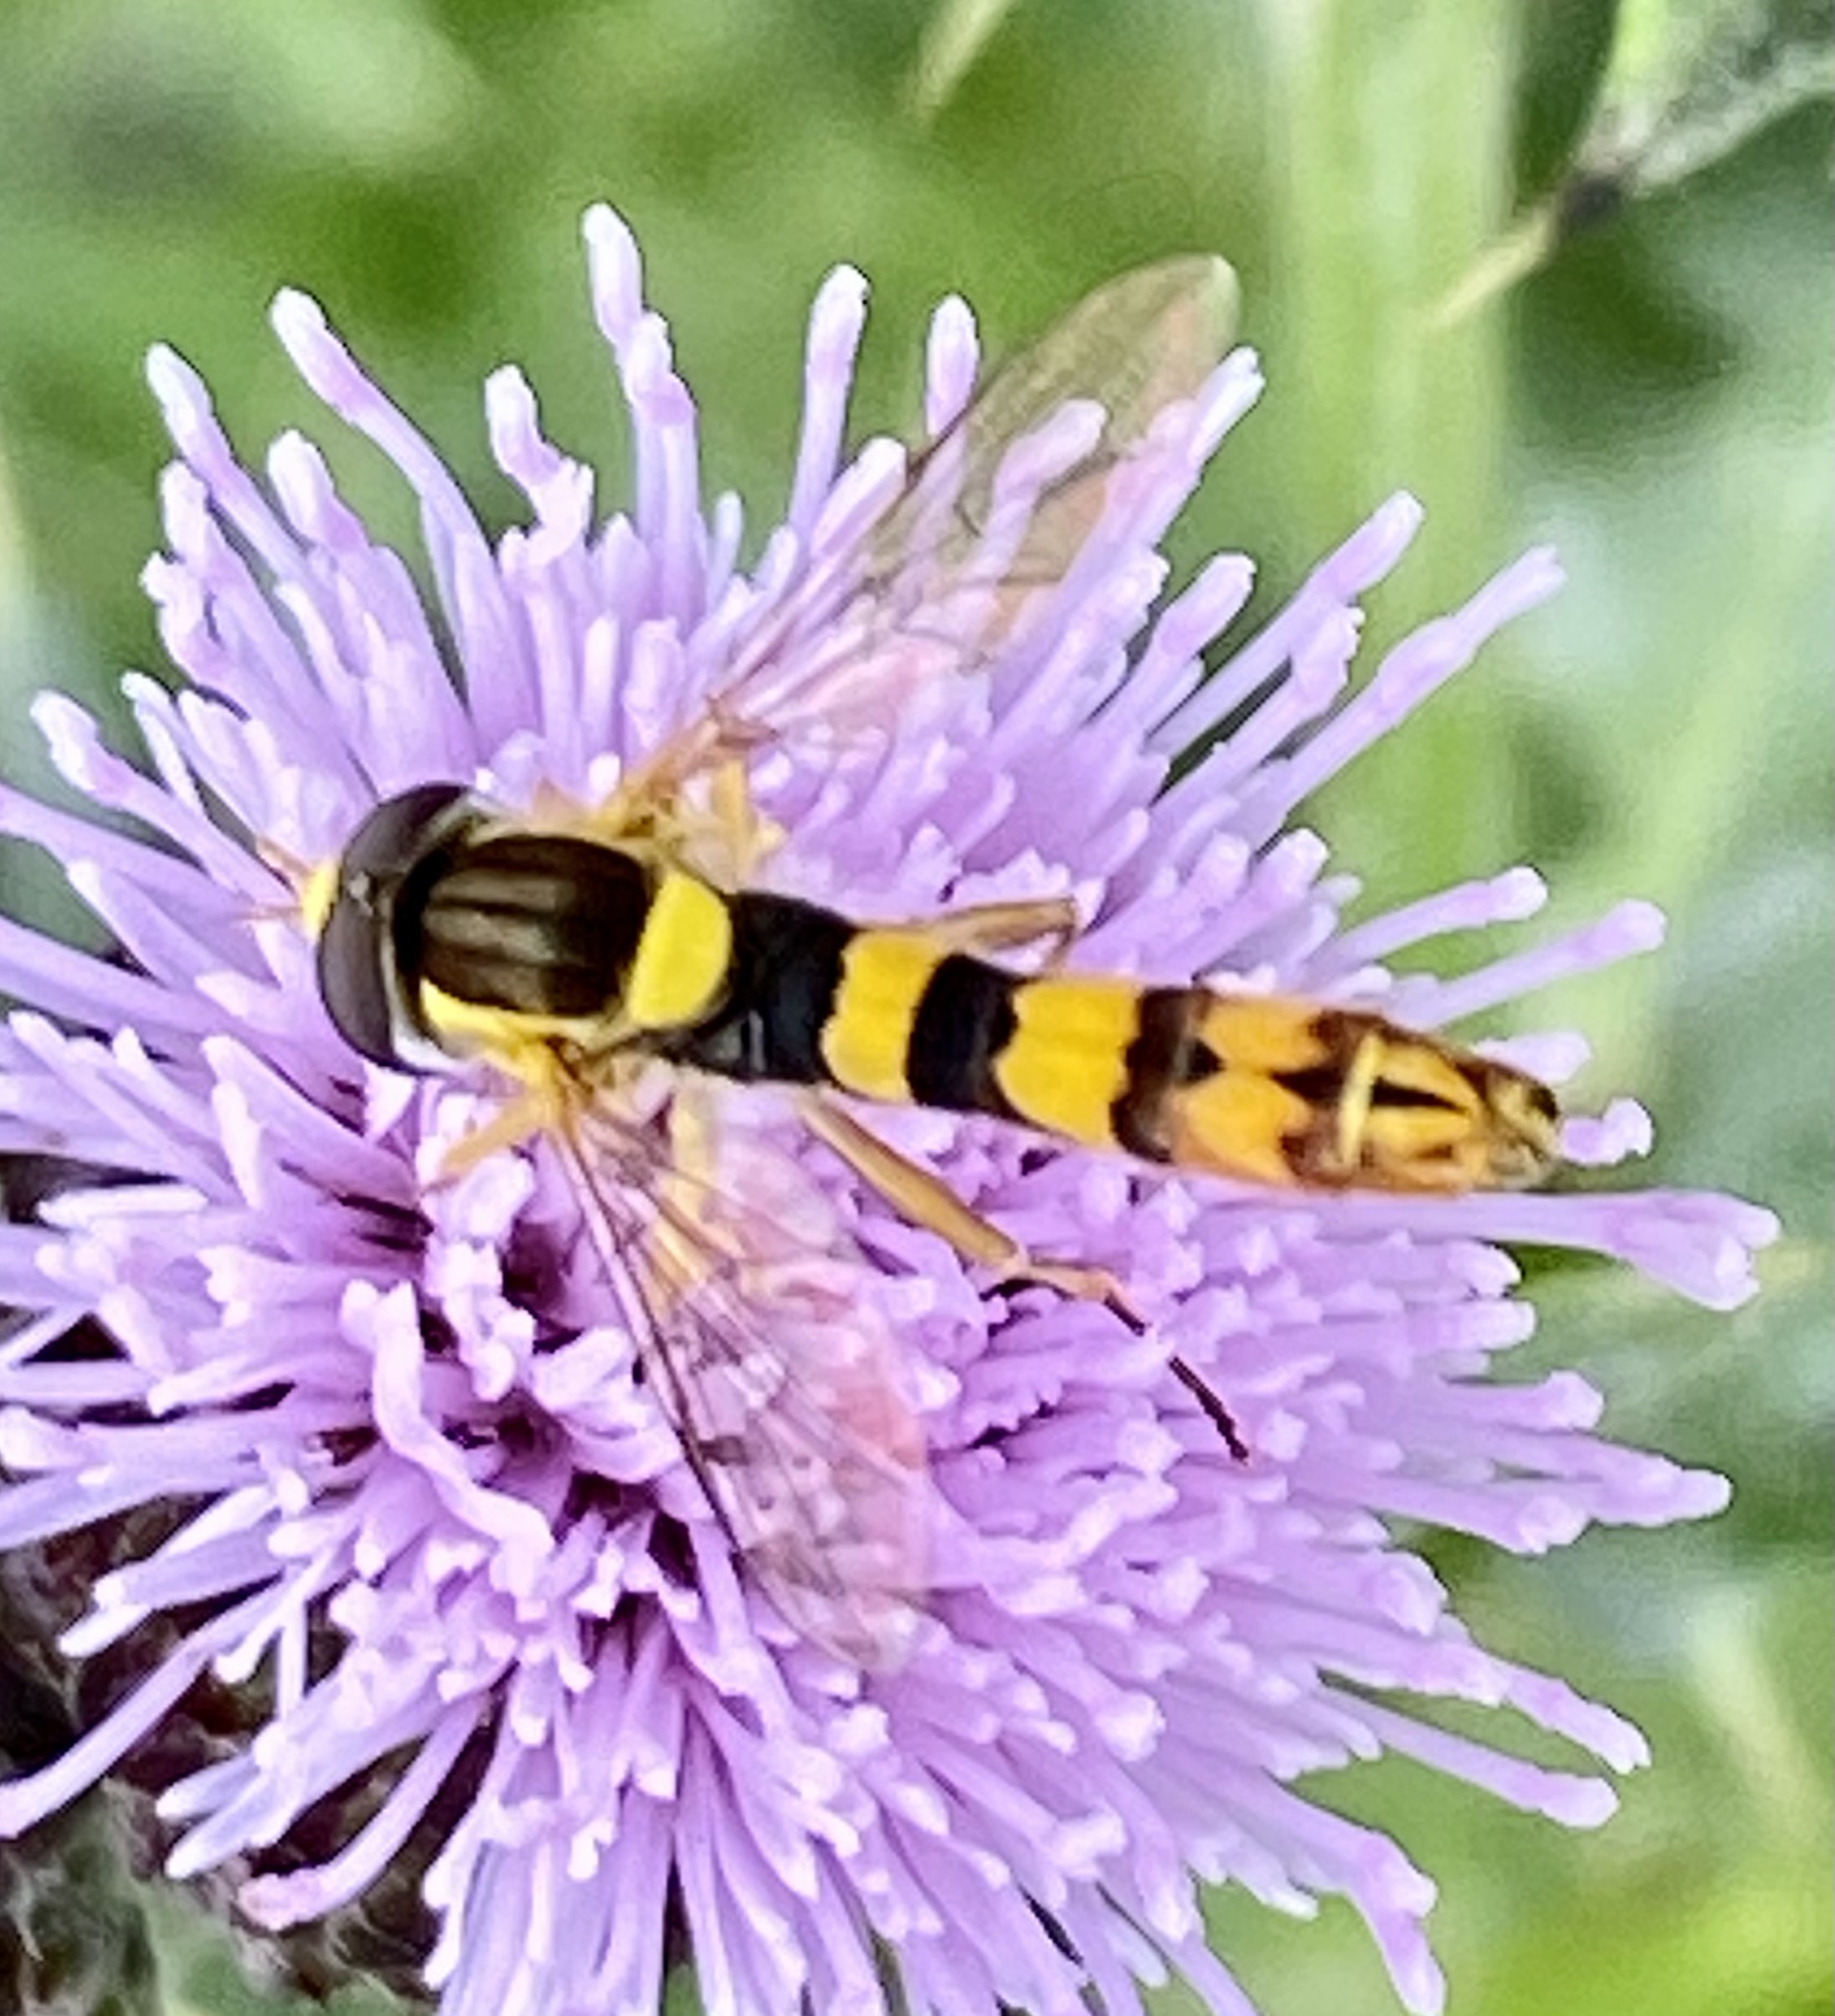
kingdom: Animalia
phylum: Arthropoda
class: Insecta
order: Diptera
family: Syrphidae
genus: Sphaerophoria
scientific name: Sphaerophoria scripta
